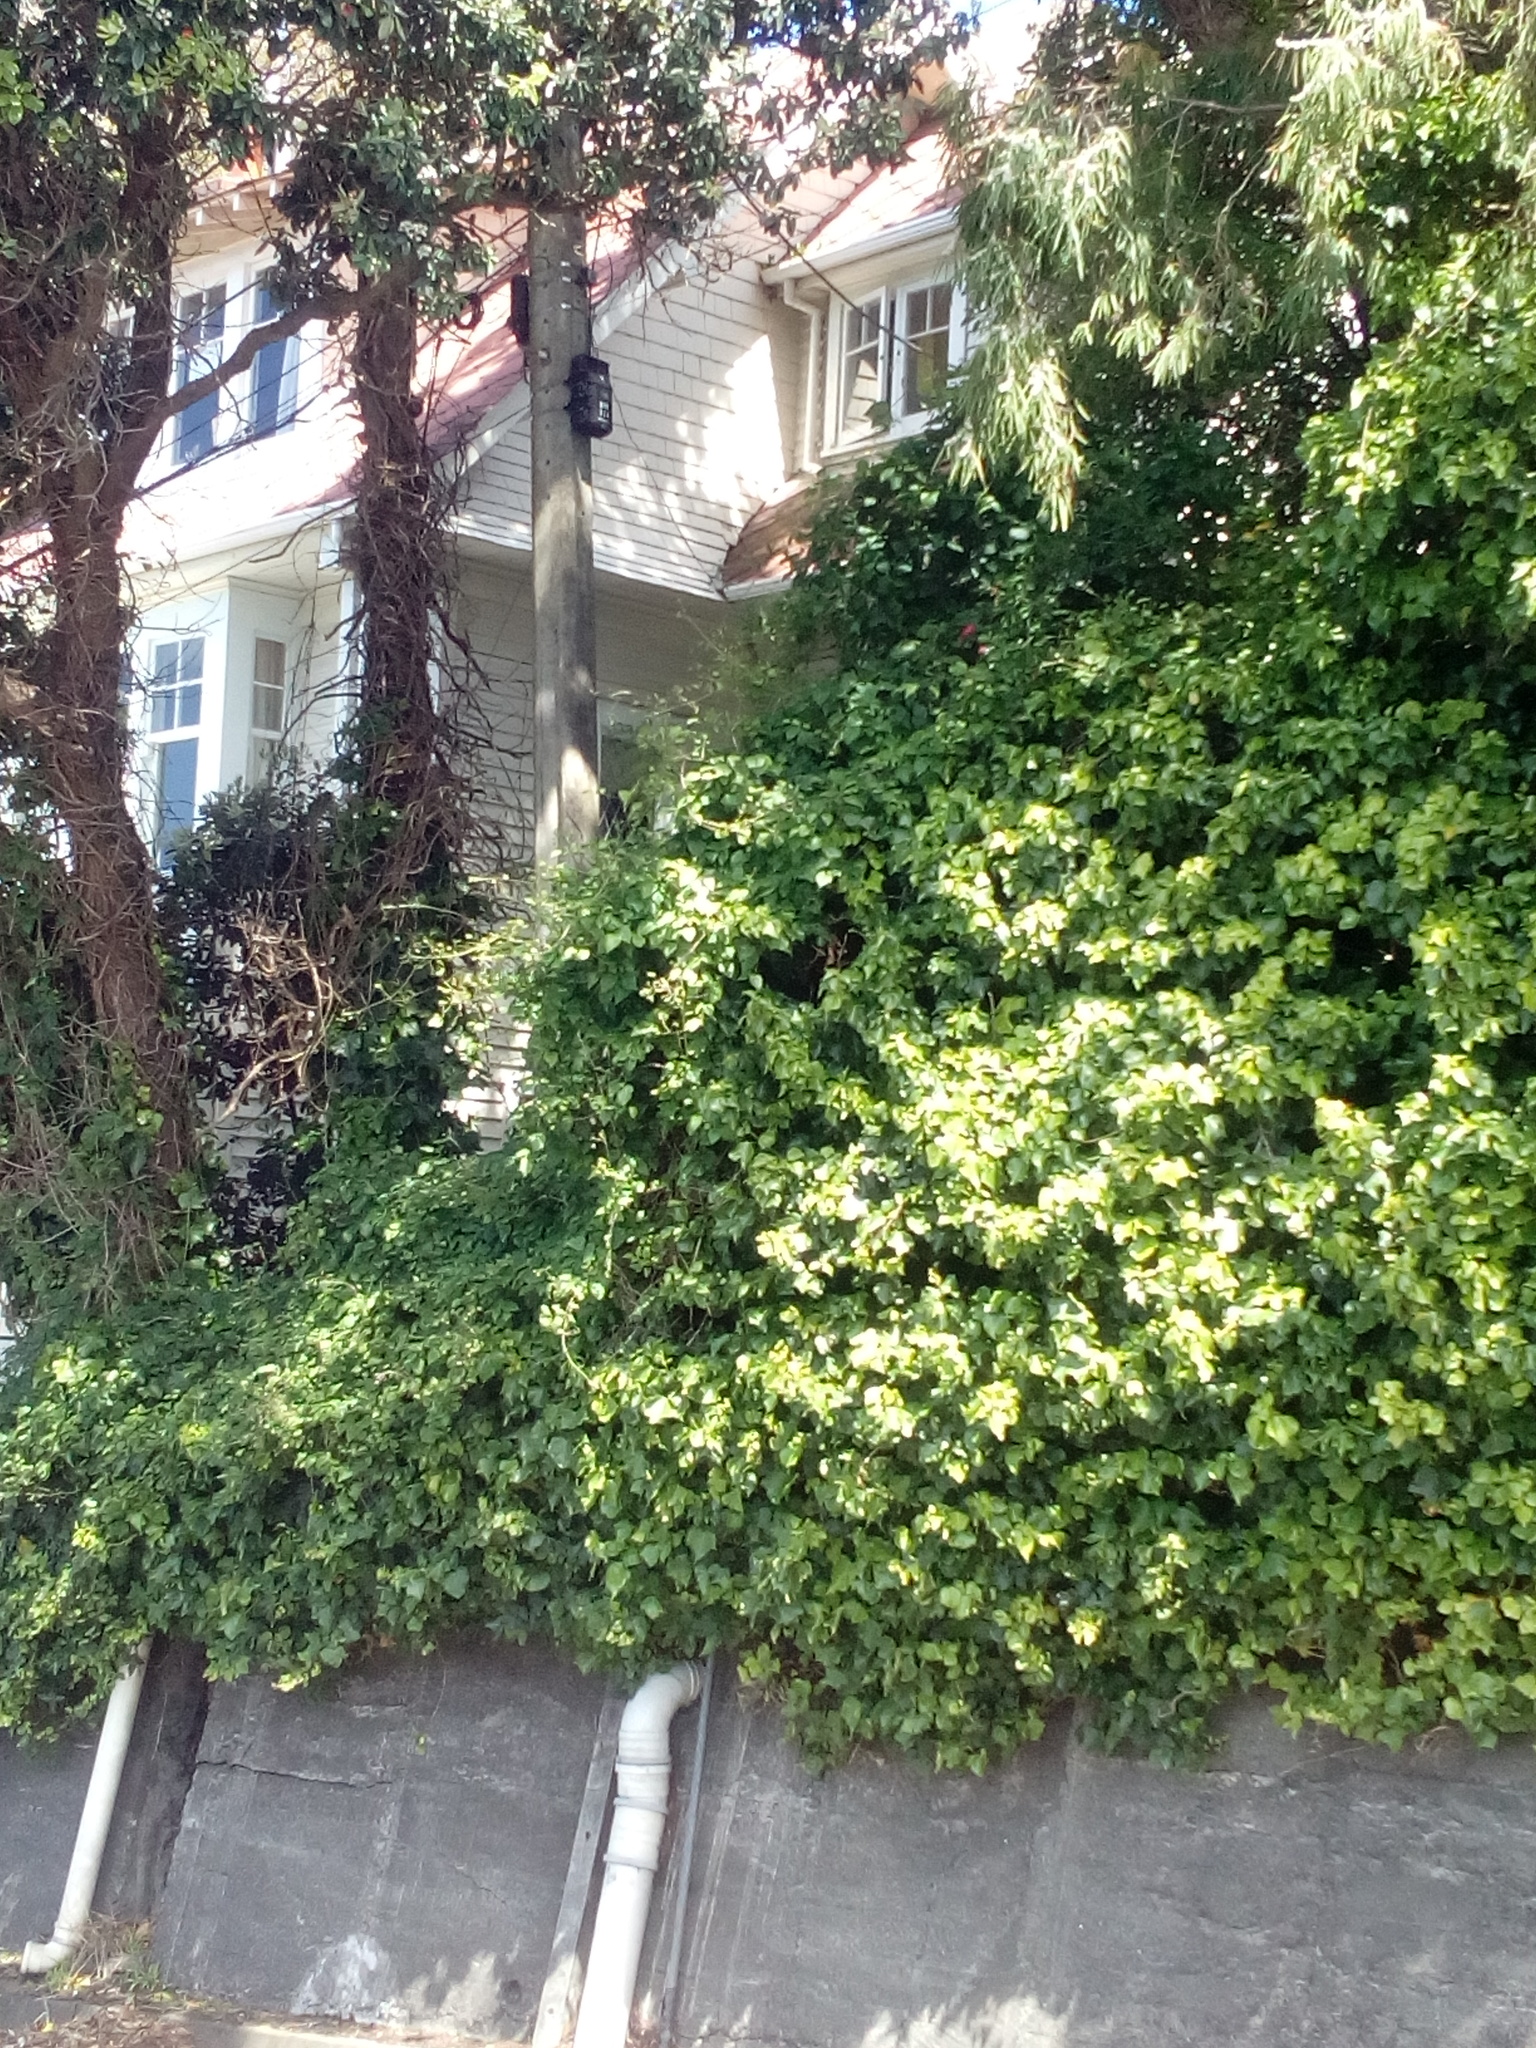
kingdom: Plantae
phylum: Tracheophyta
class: Magnoliopsida
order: Ranunculales
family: Ranunculaceae
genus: Clematis
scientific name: Clematis vitalba
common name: Evergreen clematis
